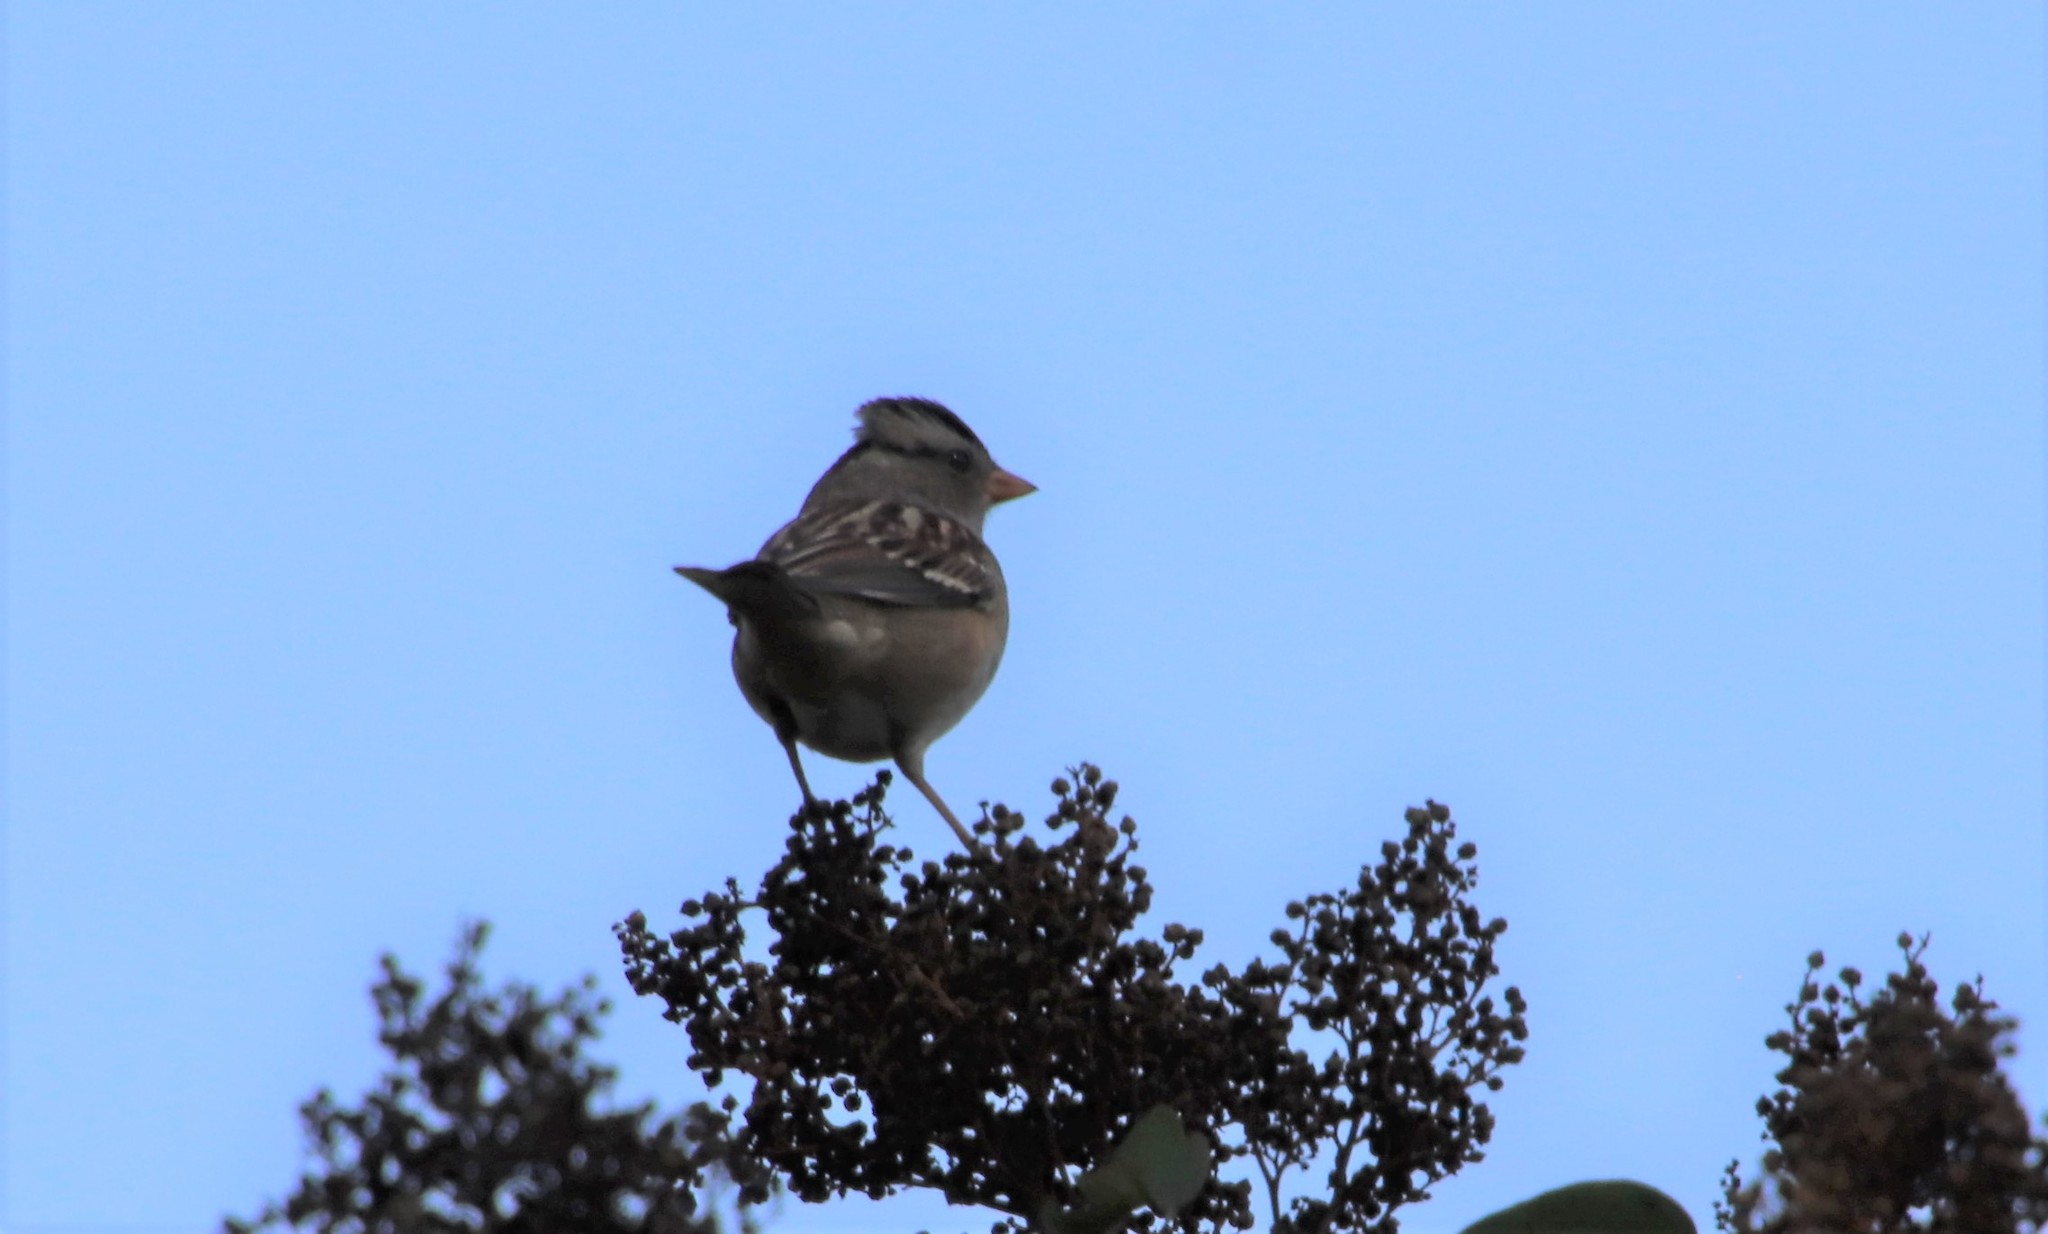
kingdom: Animalia
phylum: Chordata
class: Aves
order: Passeriformes
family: Passerellidae
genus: Zonotrichia
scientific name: Zonotrichia leucophrys
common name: White-crowned sparrow
